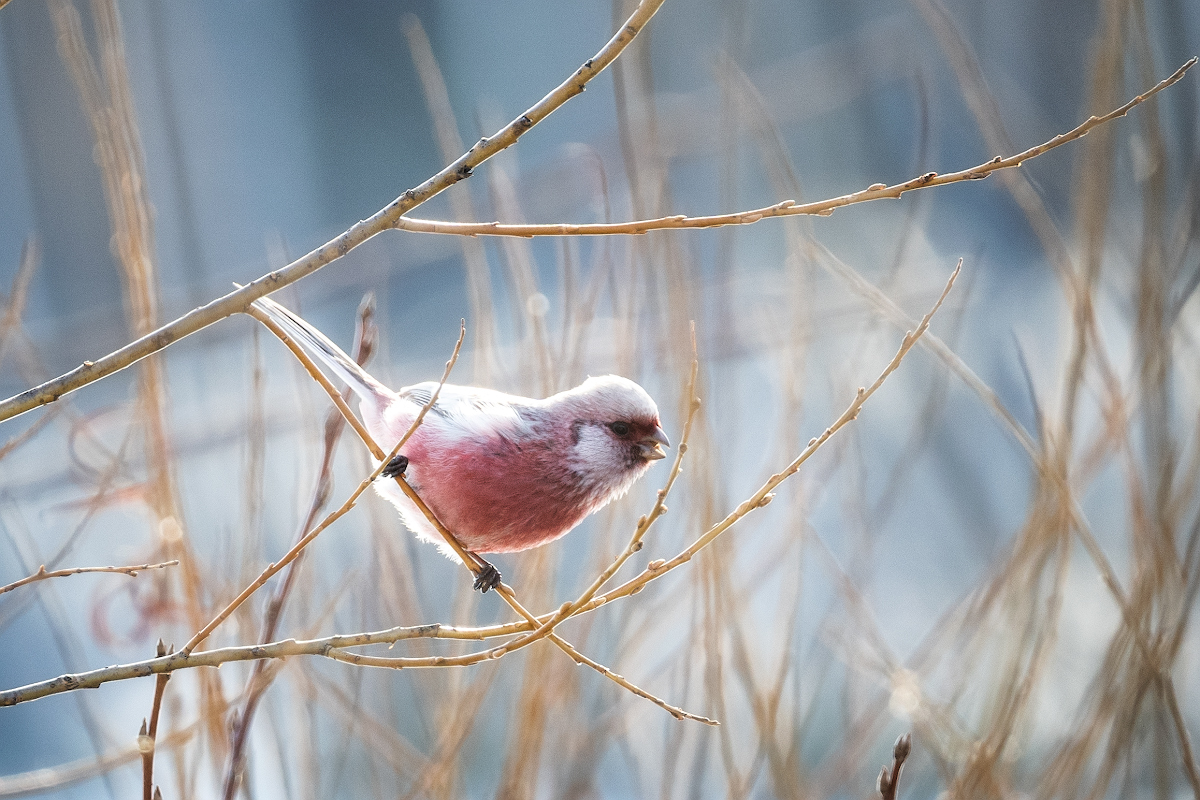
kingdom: Animalia
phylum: Chordata
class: Aves
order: Passeriformes
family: Fringillidae
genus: Carpodacus
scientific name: Carpodacus sibiricus
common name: Long-tailed rosefinch
